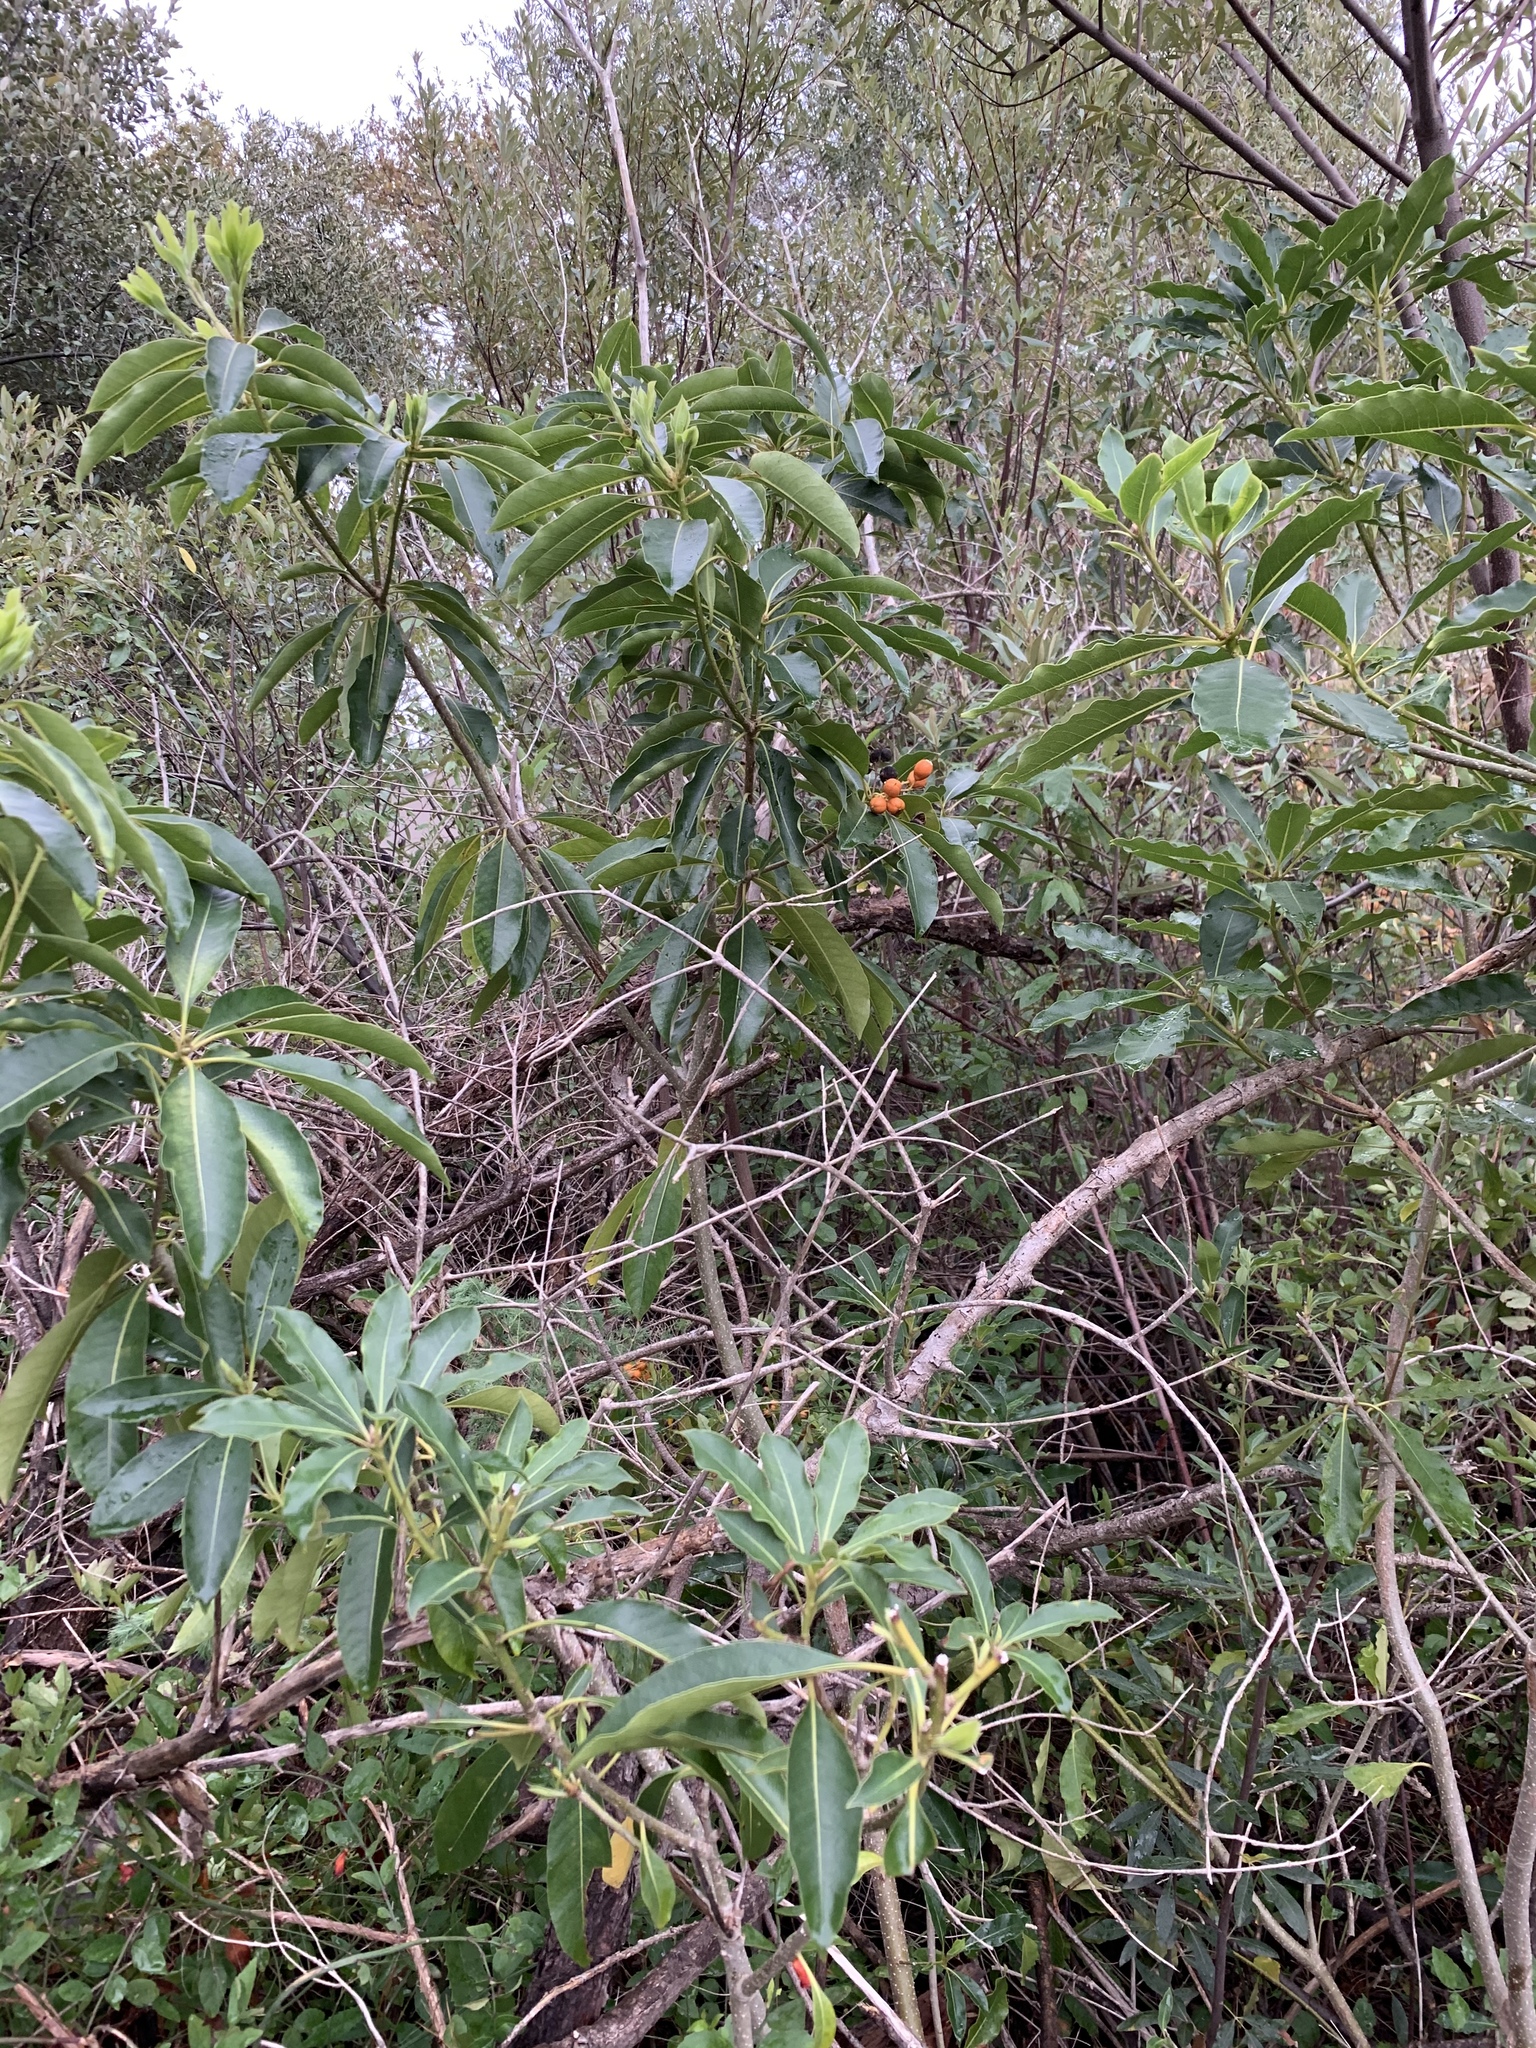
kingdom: Plantae
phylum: Tracheophyta
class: Magnoliopsida
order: Apiales
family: Pittosporaceae
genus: Pittosporum
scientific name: Pittosporum undulatum
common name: Australian cheesewood
